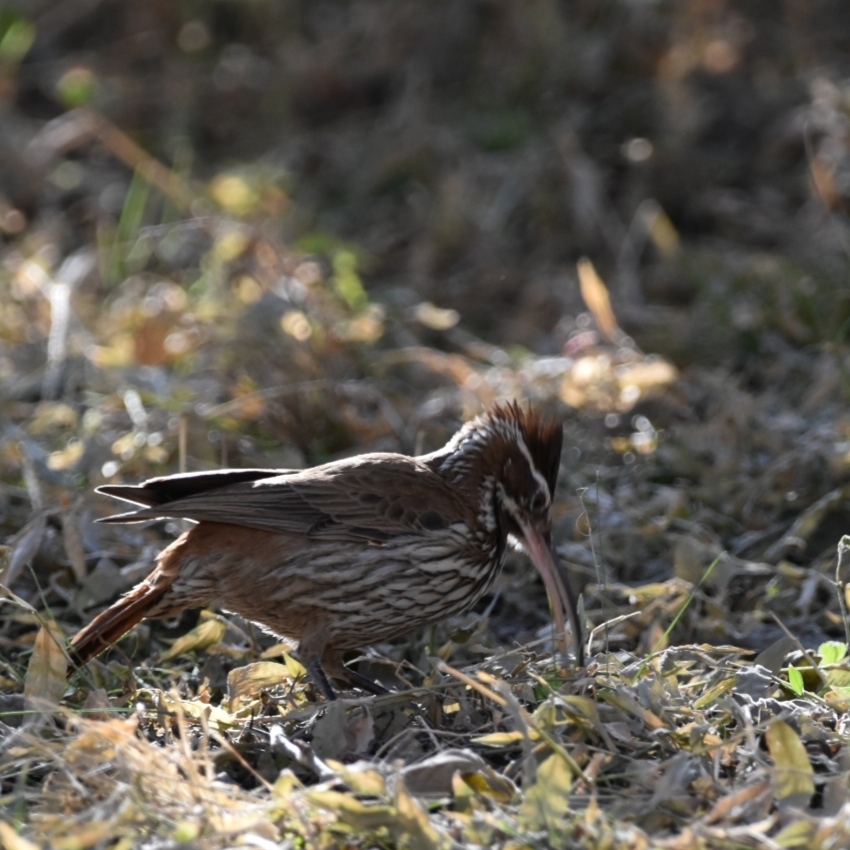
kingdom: Animalia
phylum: Chordata
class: Aves
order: Passeriformes
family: Furnariidae
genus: Drymornis
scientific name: Drymornis bridgesii
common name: Scimitar-billed woodcreeper
